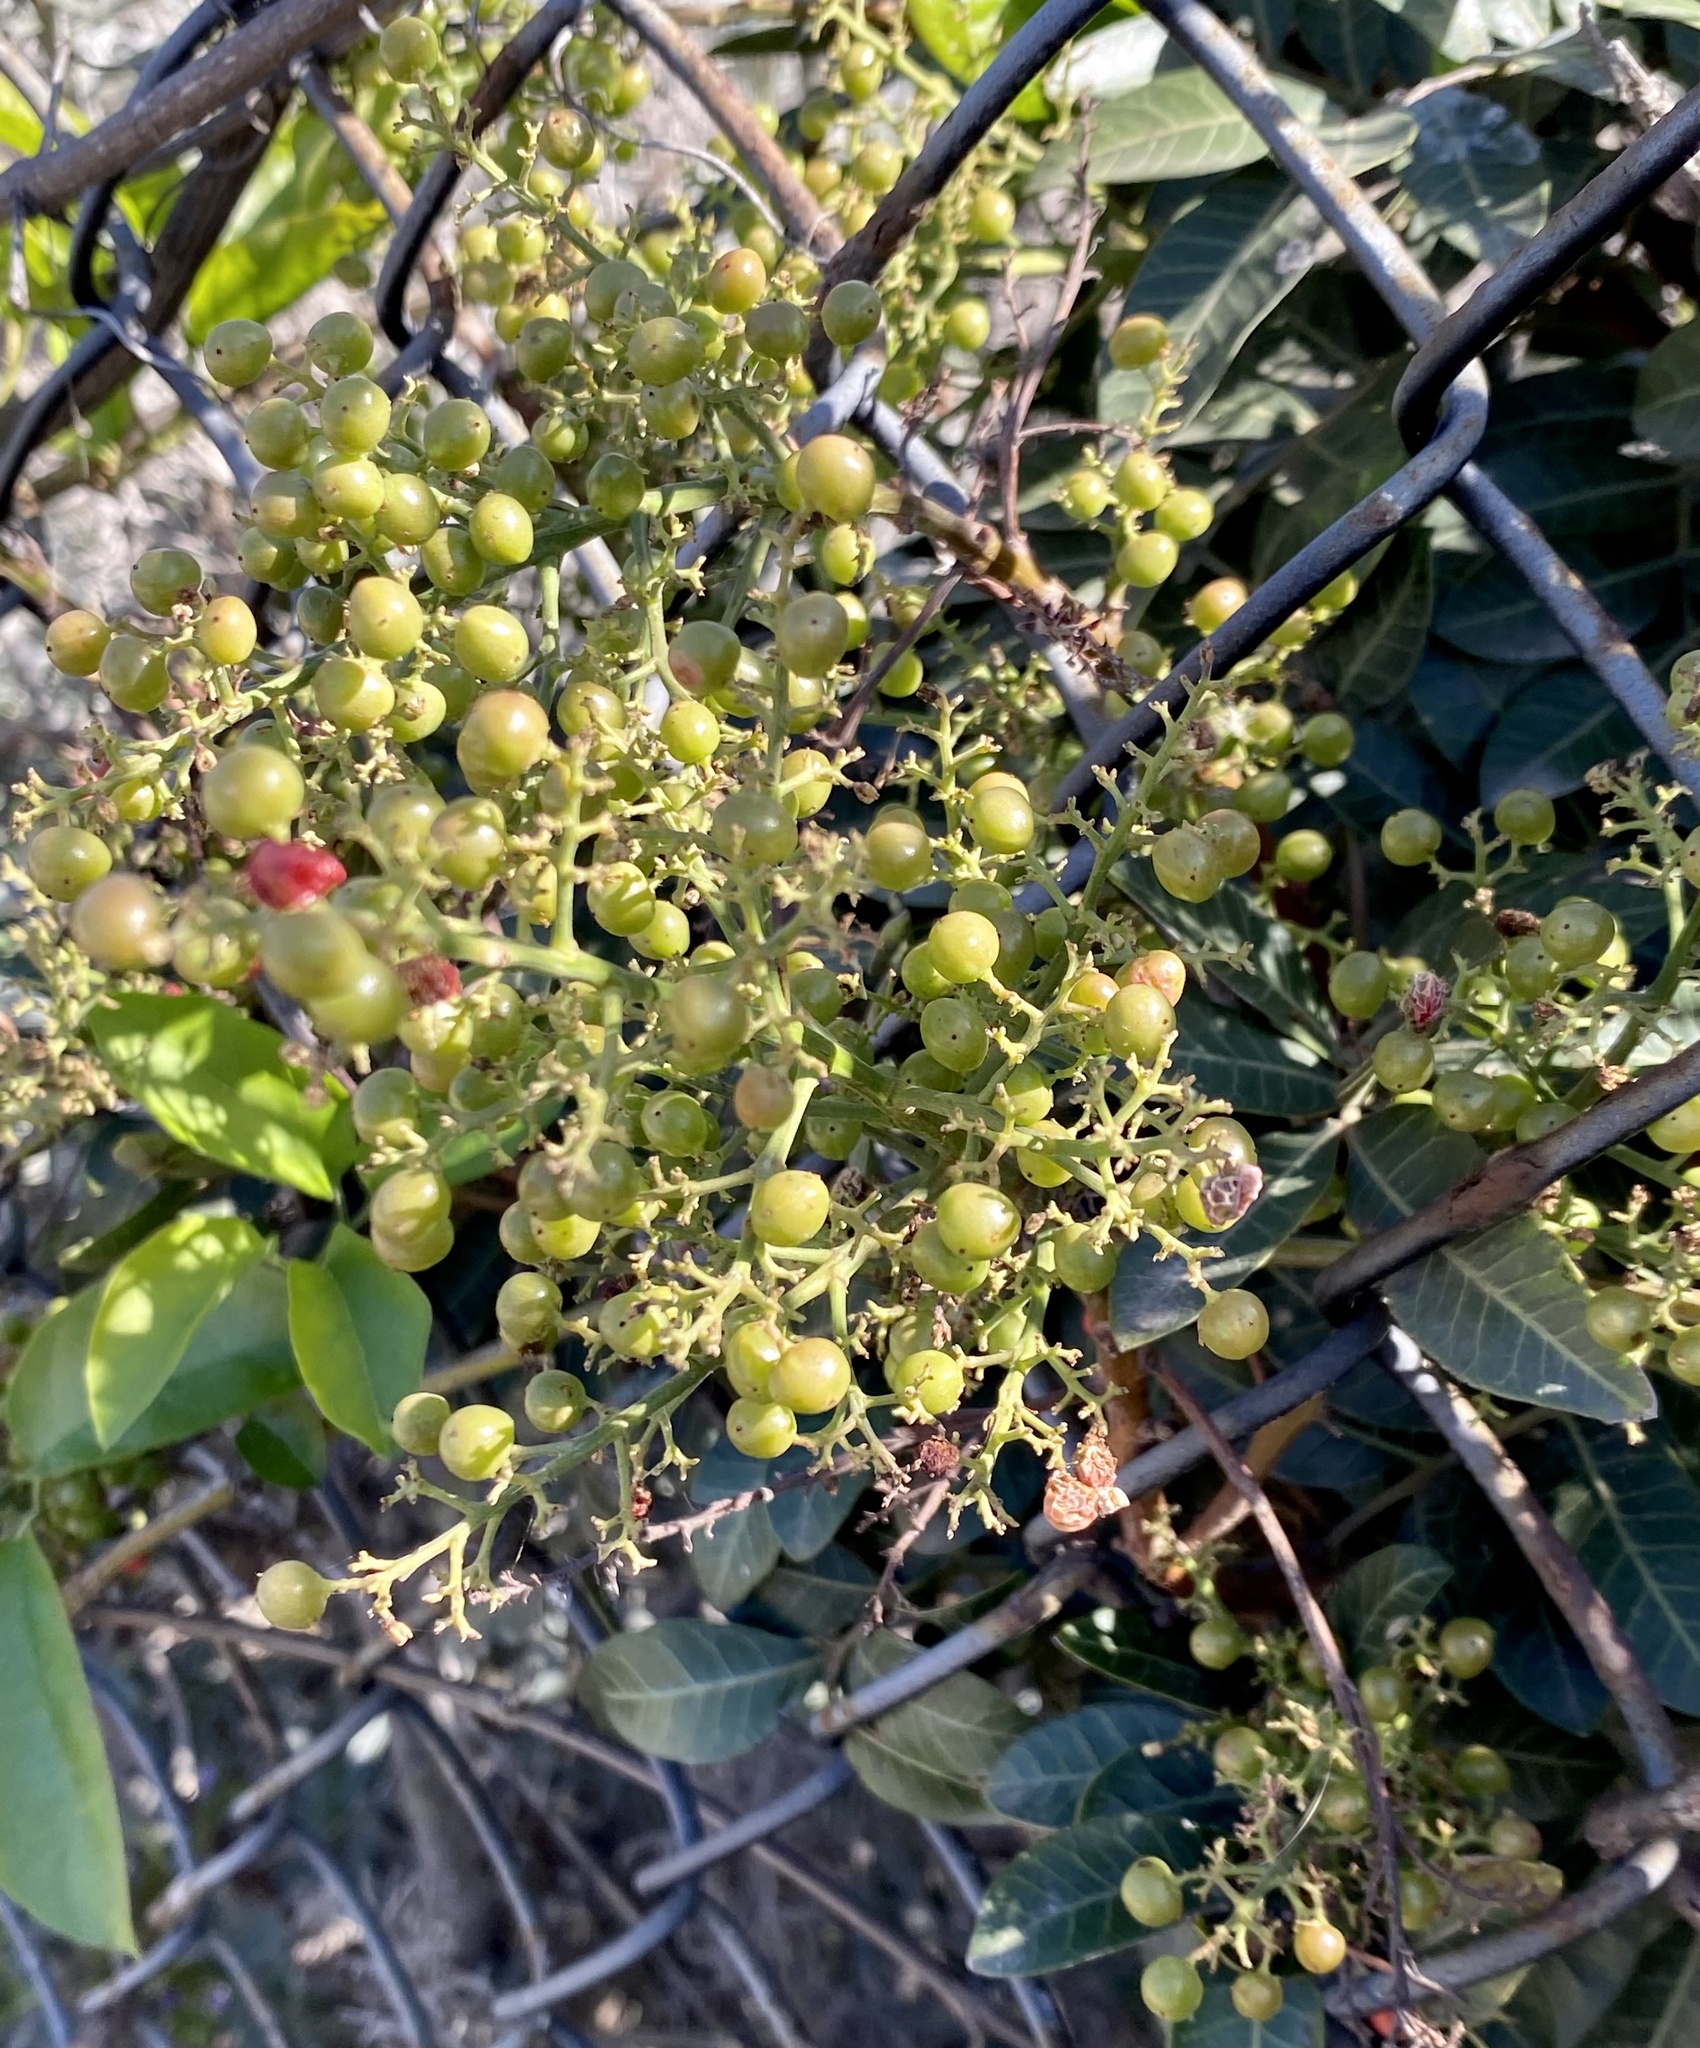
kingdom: Plantae
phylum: Tracheophyta
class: Magnoliopsida
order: Sapindales
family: Anacardiaceae
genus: Schinus
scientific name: Schinus terebinthifolia
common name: Brazilian peppertree
